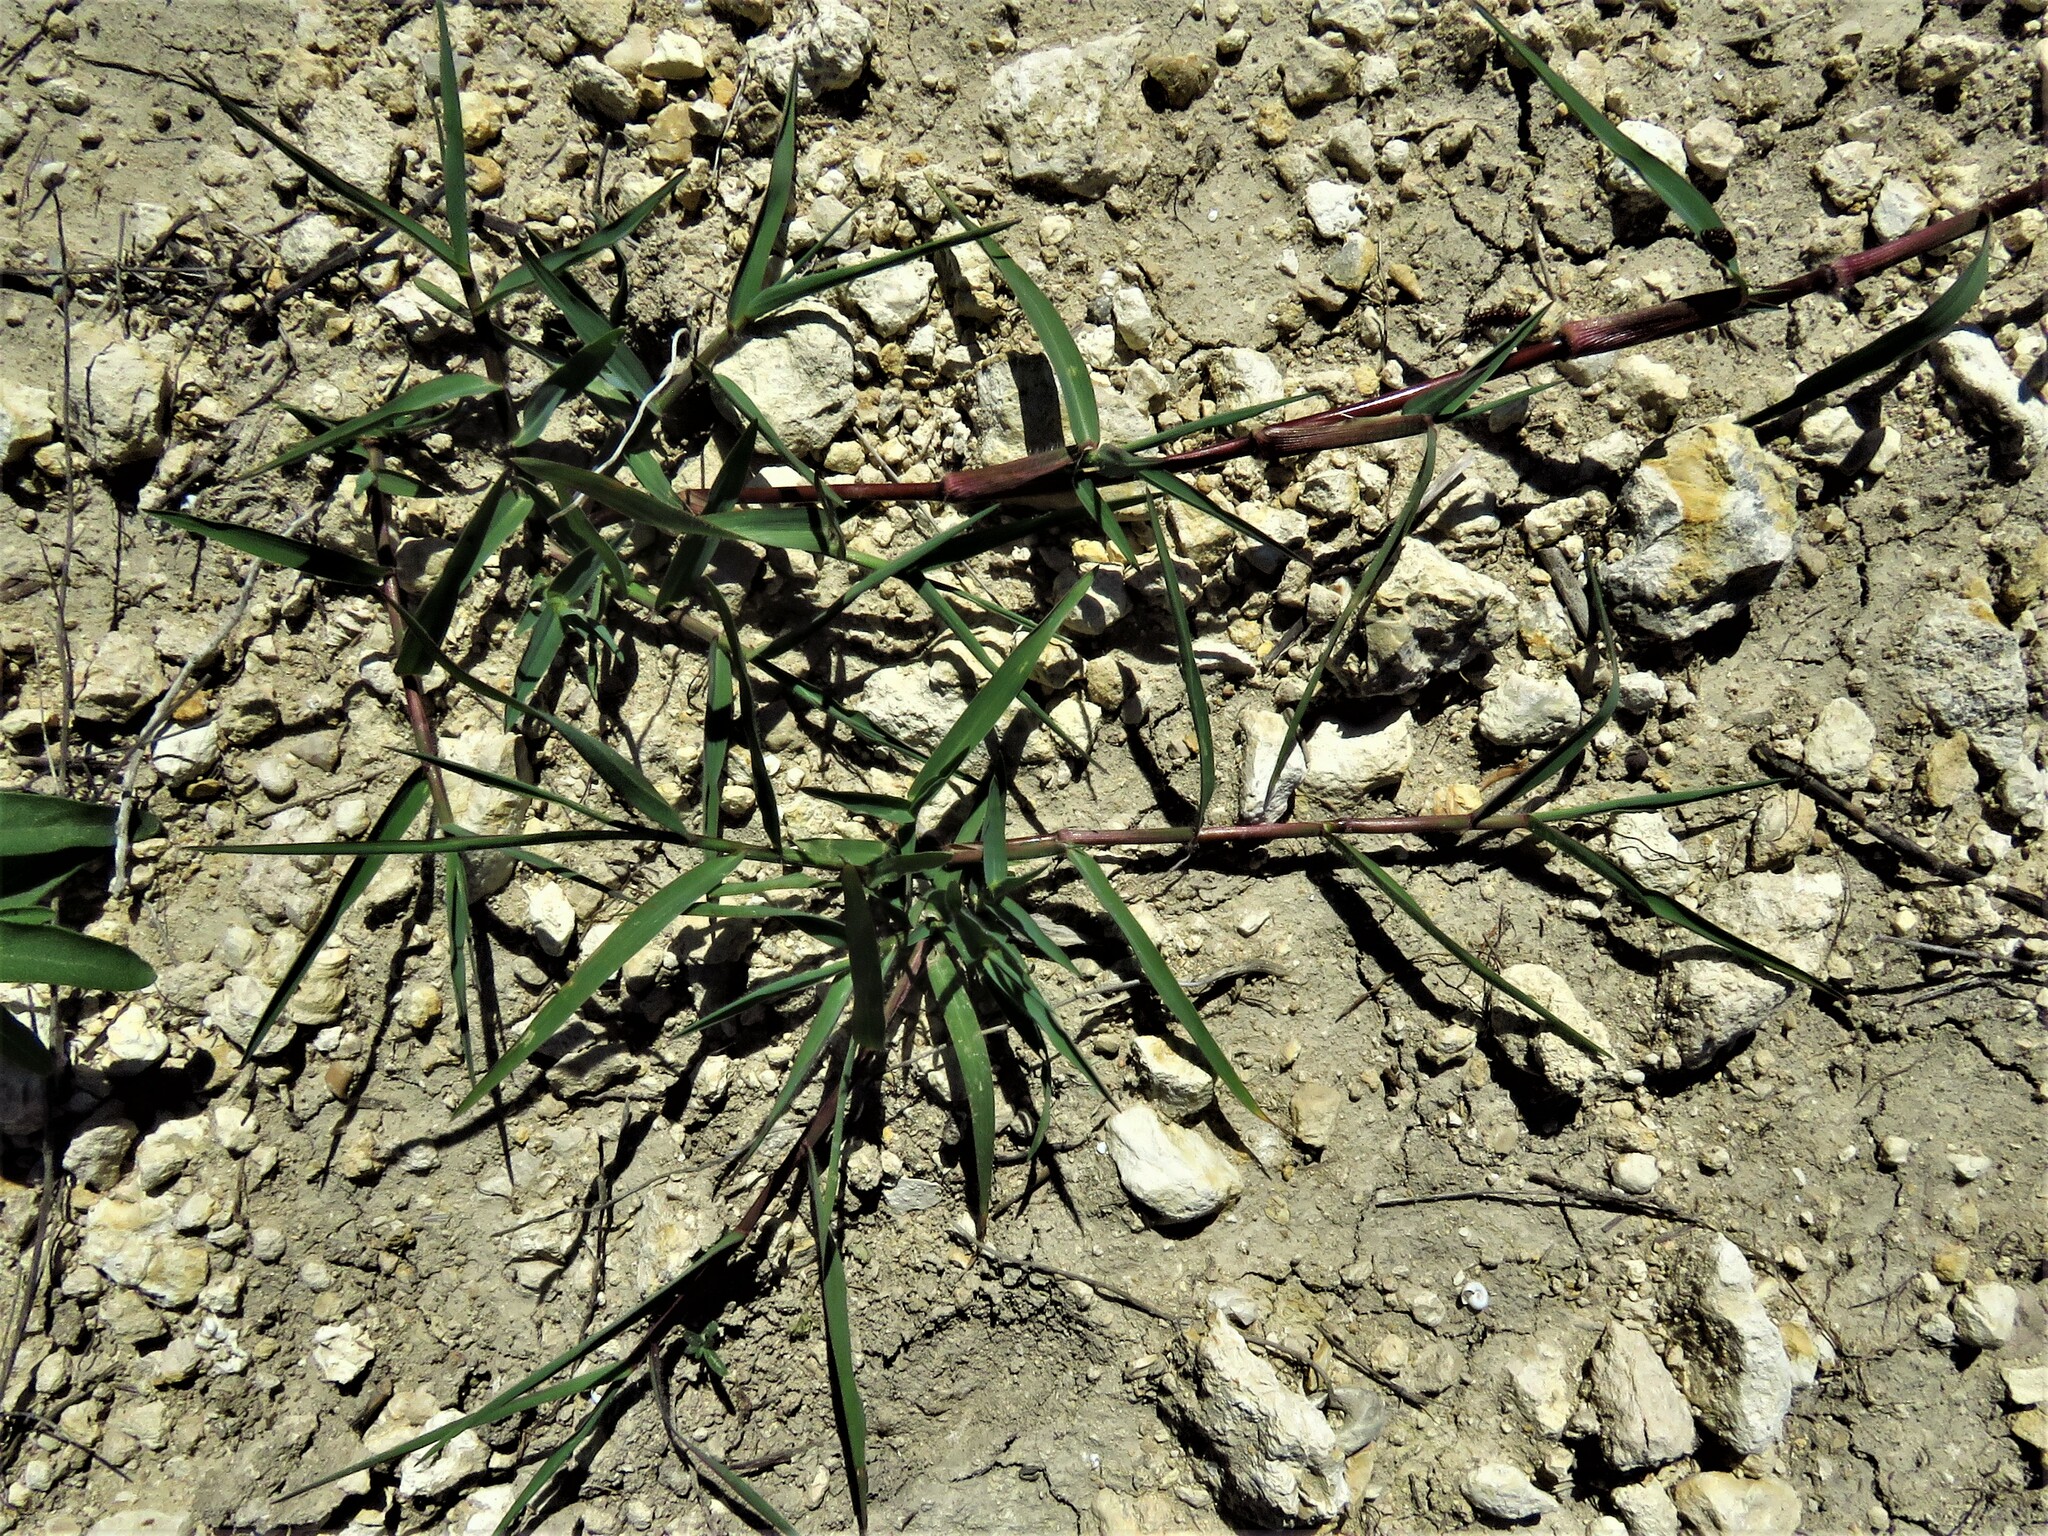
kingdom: Plantae
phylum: Tracheophyta
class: Liliopsida
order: Poales
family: Poaceae
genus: Cynodon
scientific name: Cynodon dactylon
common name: Bermuda grass
